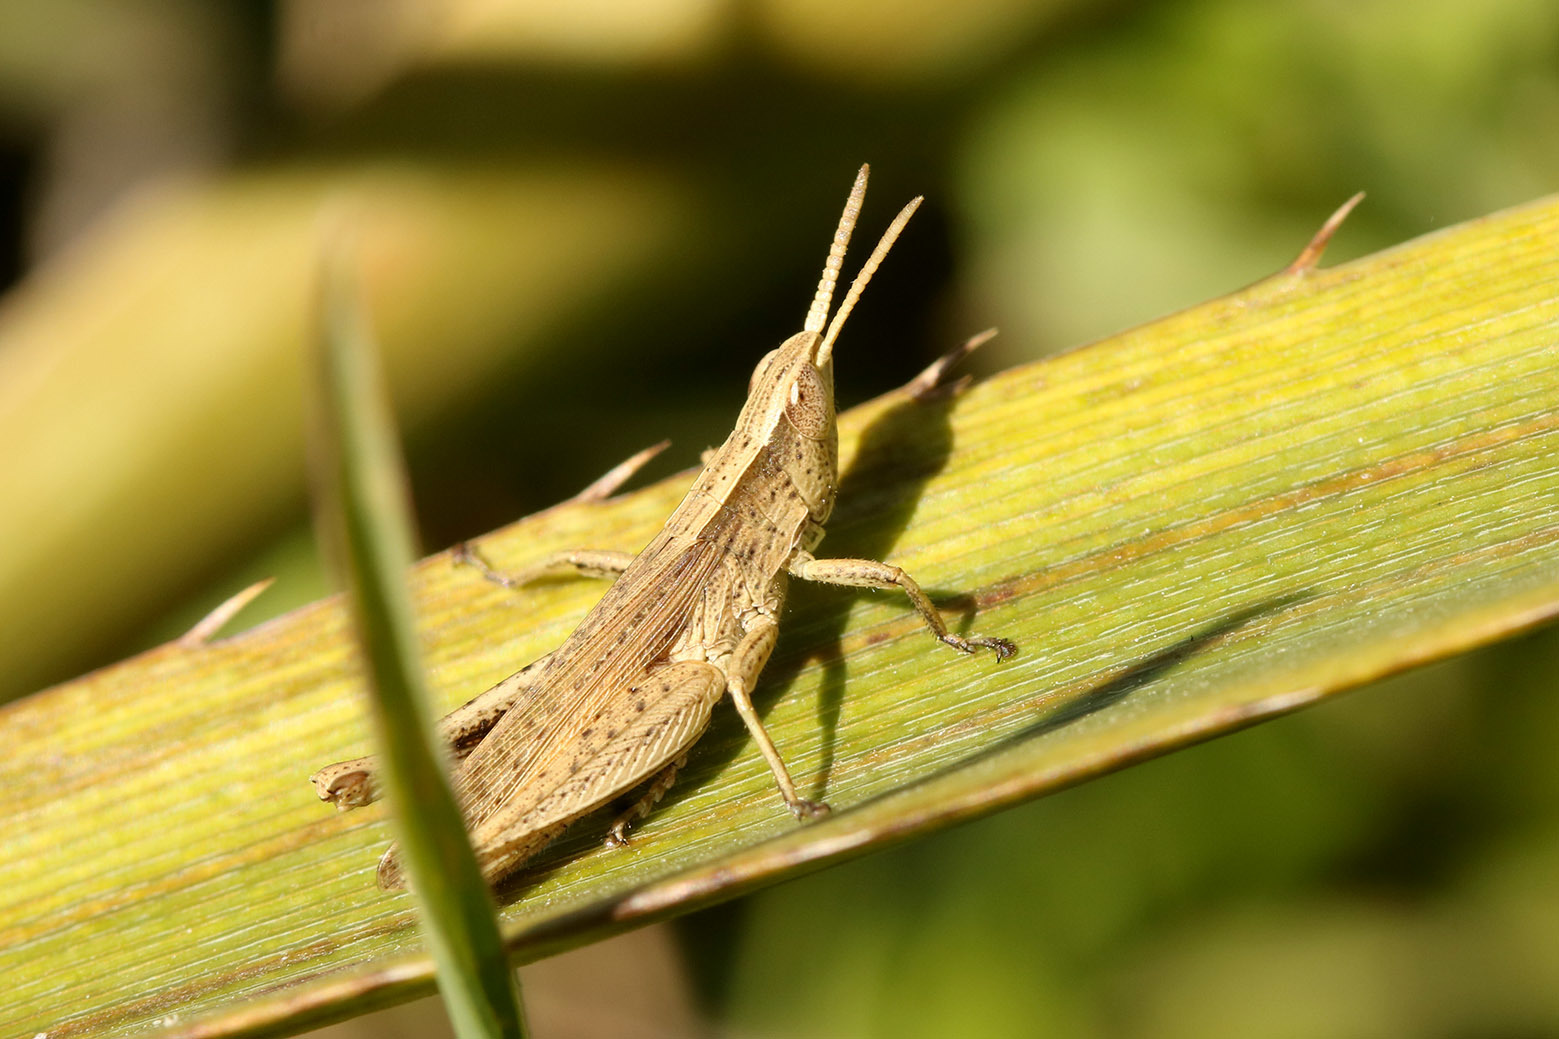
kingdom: Animalia
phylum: Arthropoda
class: Insecta
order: Orthoptera
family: Acrididae
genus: Laplatacris
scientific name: Laplatacris dispar
